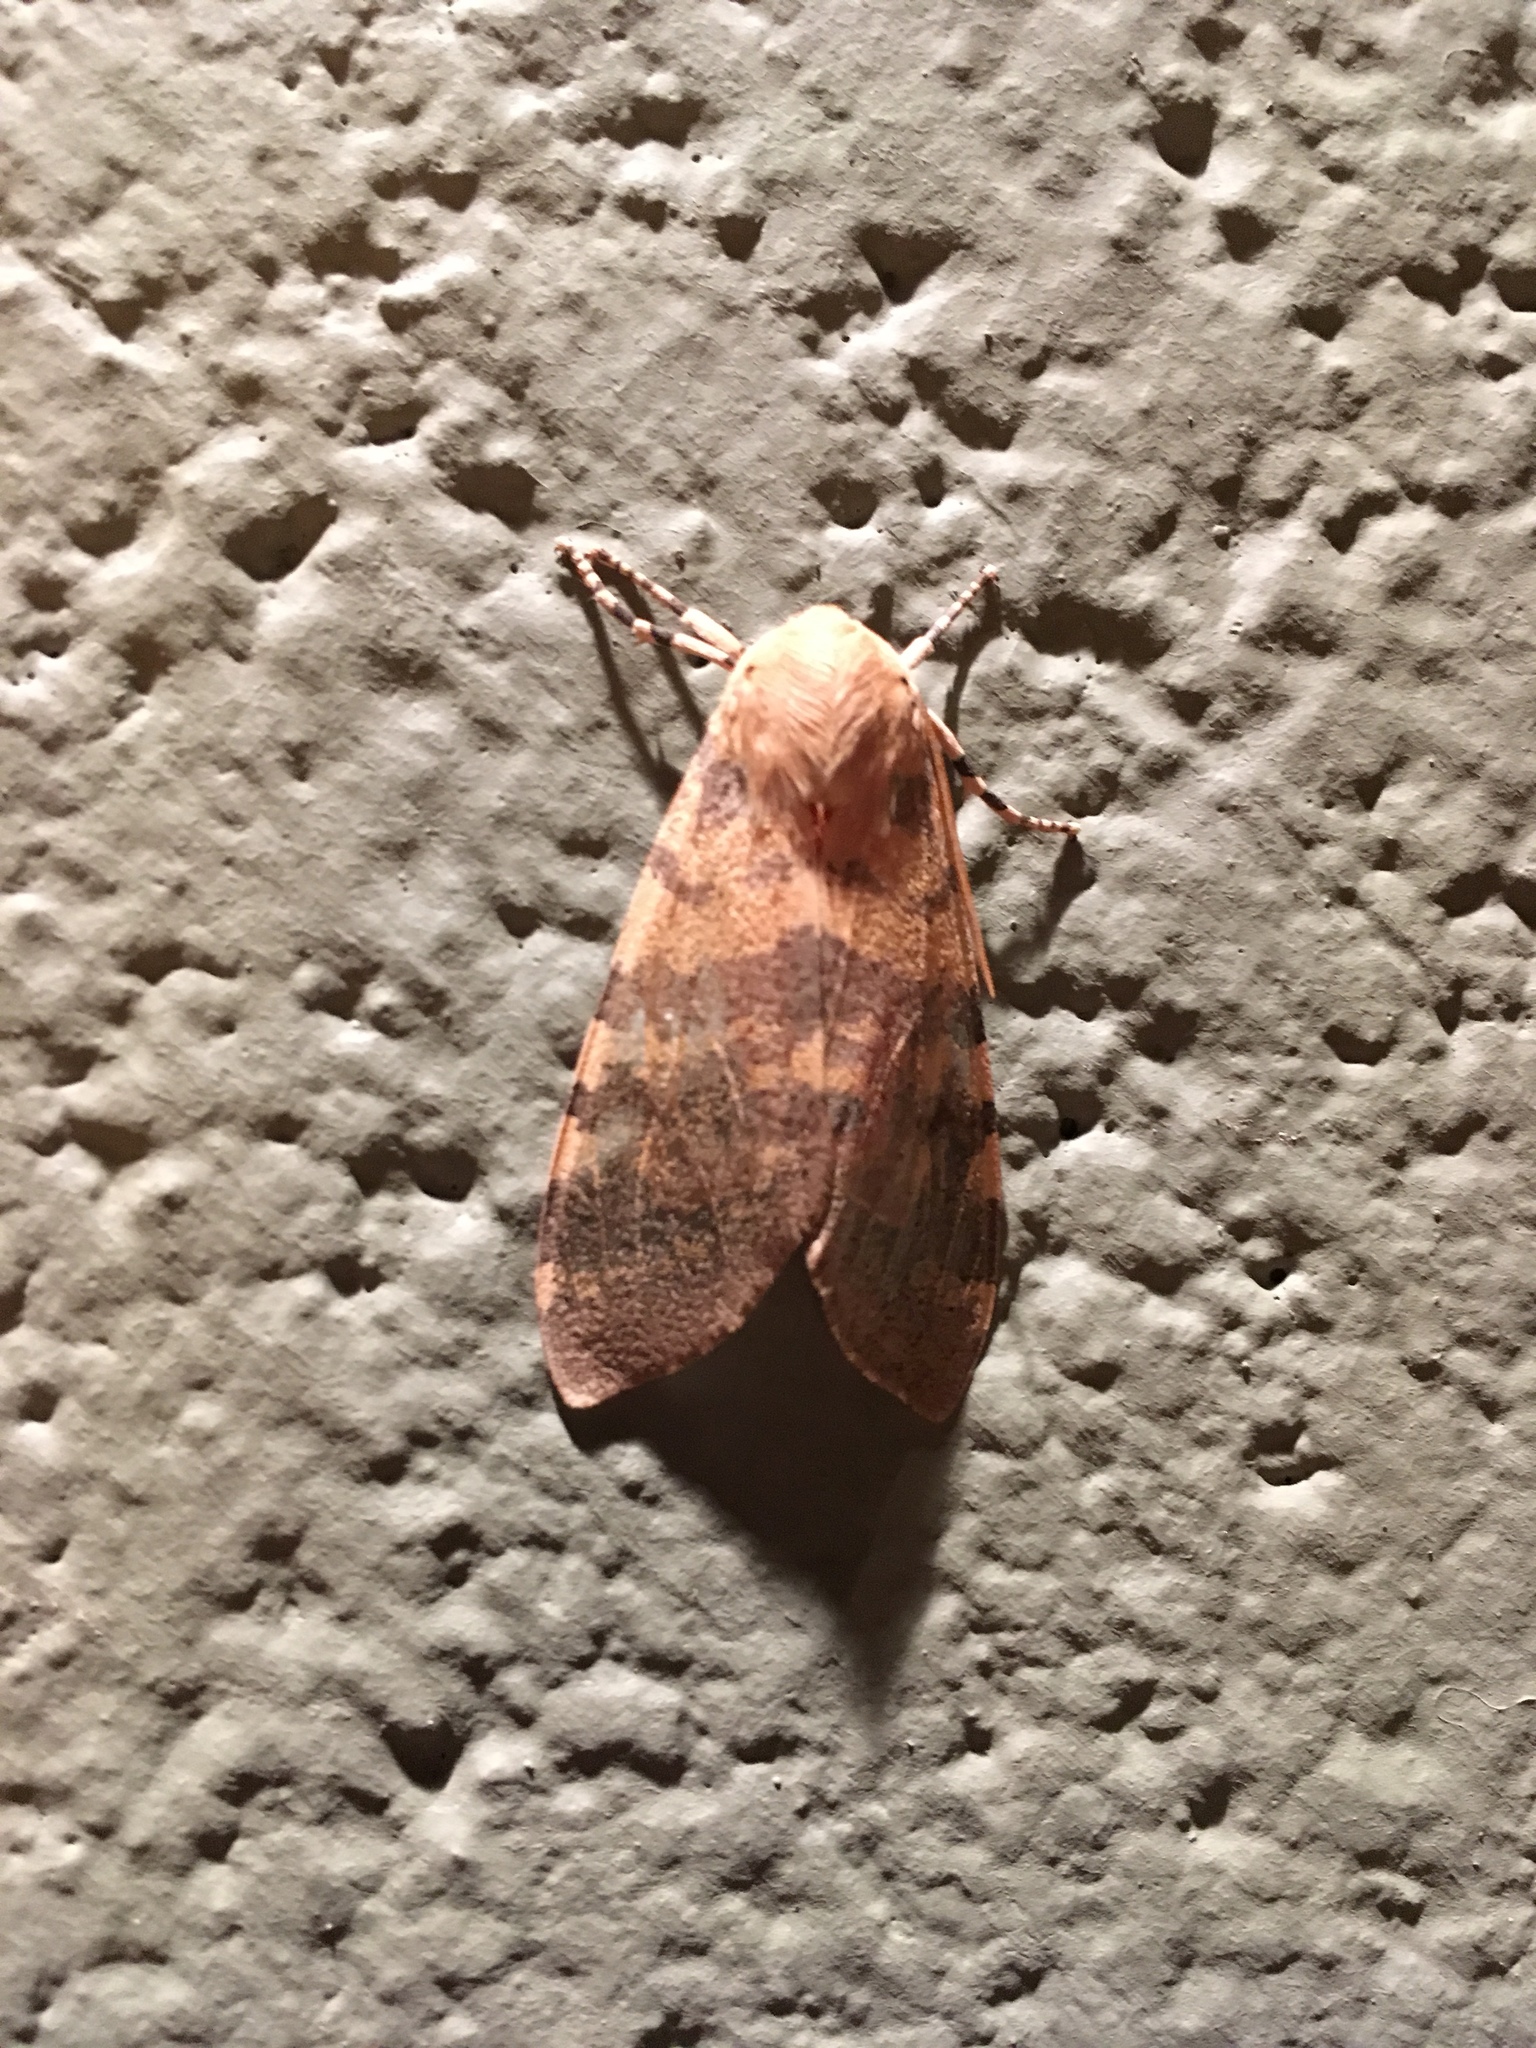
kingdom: Animalia
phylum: Arthropoda
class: Insecta
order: Lepidoptera
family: Erebidae
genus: Hemihyalea
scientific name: Hemihyalea edwardsii
